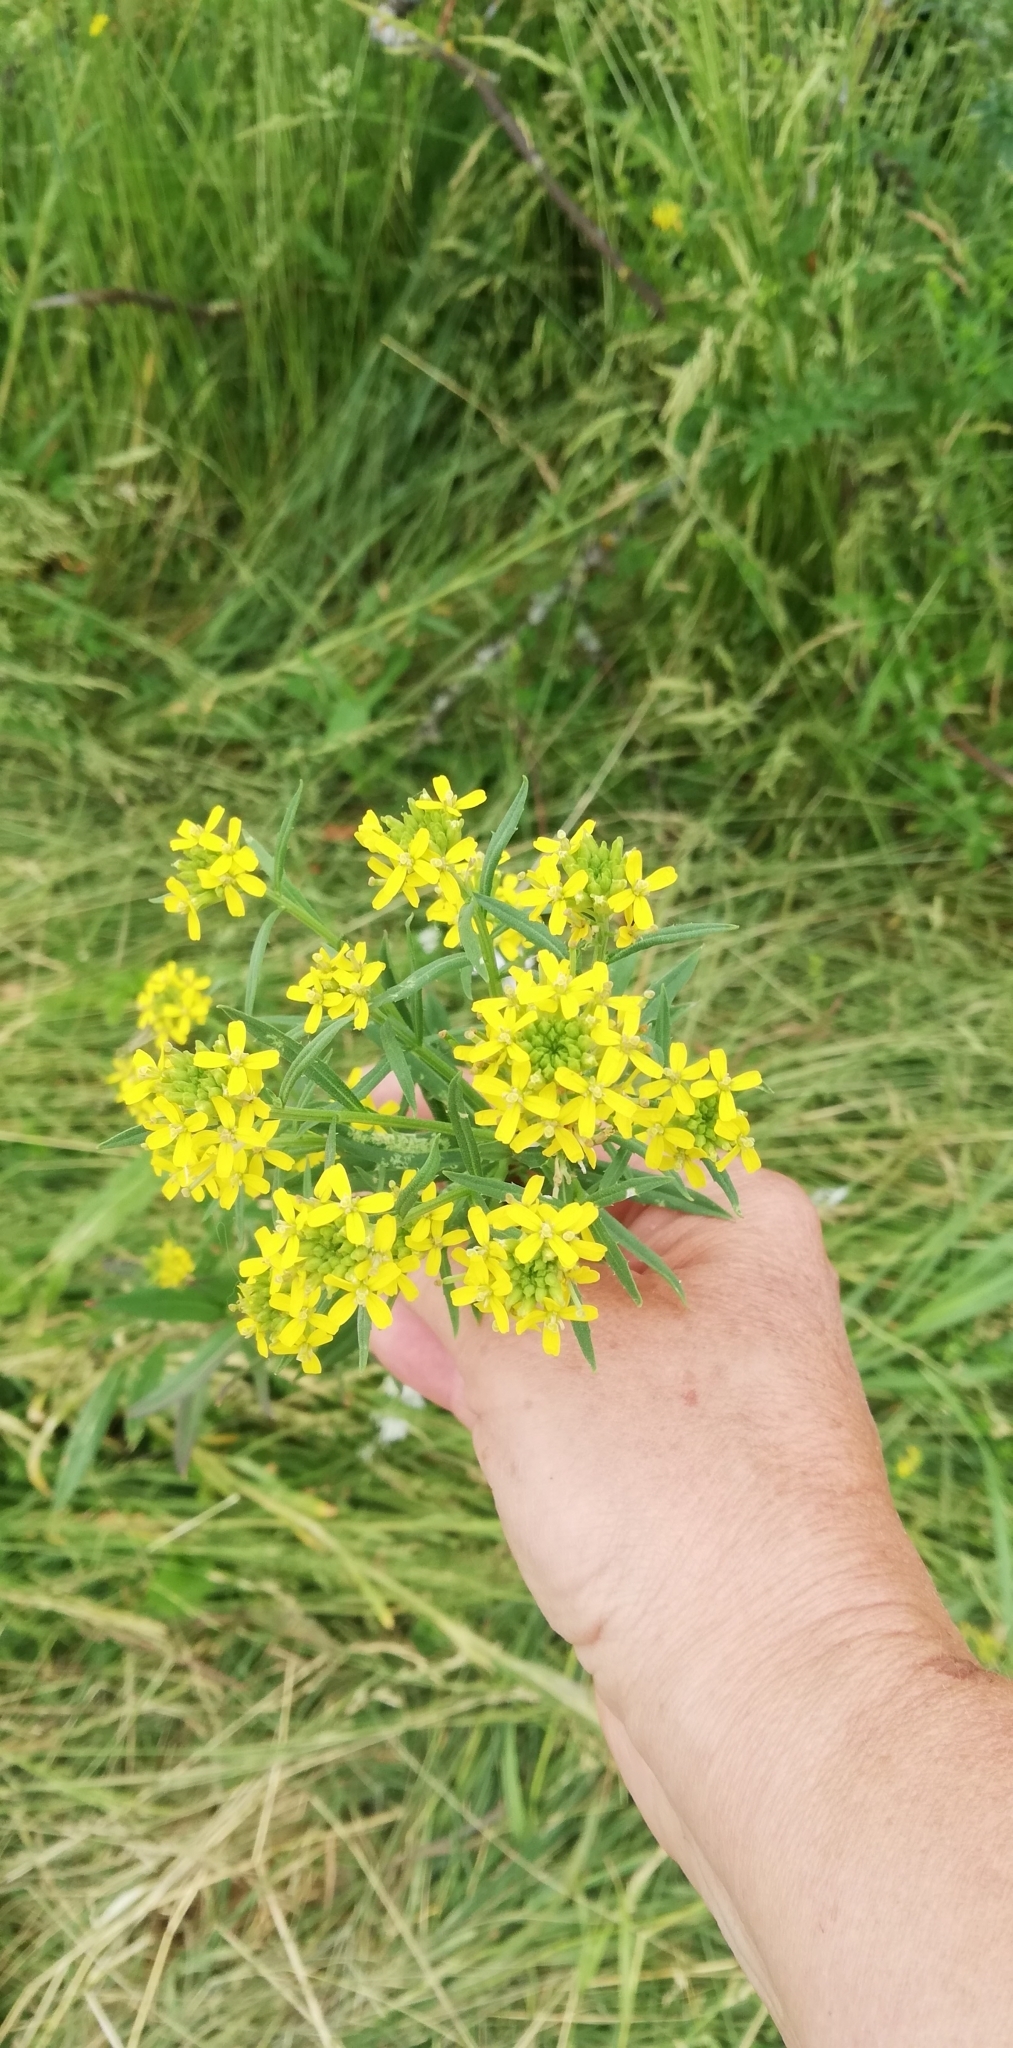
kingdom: Plantae
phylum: Tracheophyta
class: Magnoliopsida
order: Brassicales
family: Brassicaceae
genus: Erysimum
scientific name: Erysimum cheiranthoides
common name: Treacle mustard
